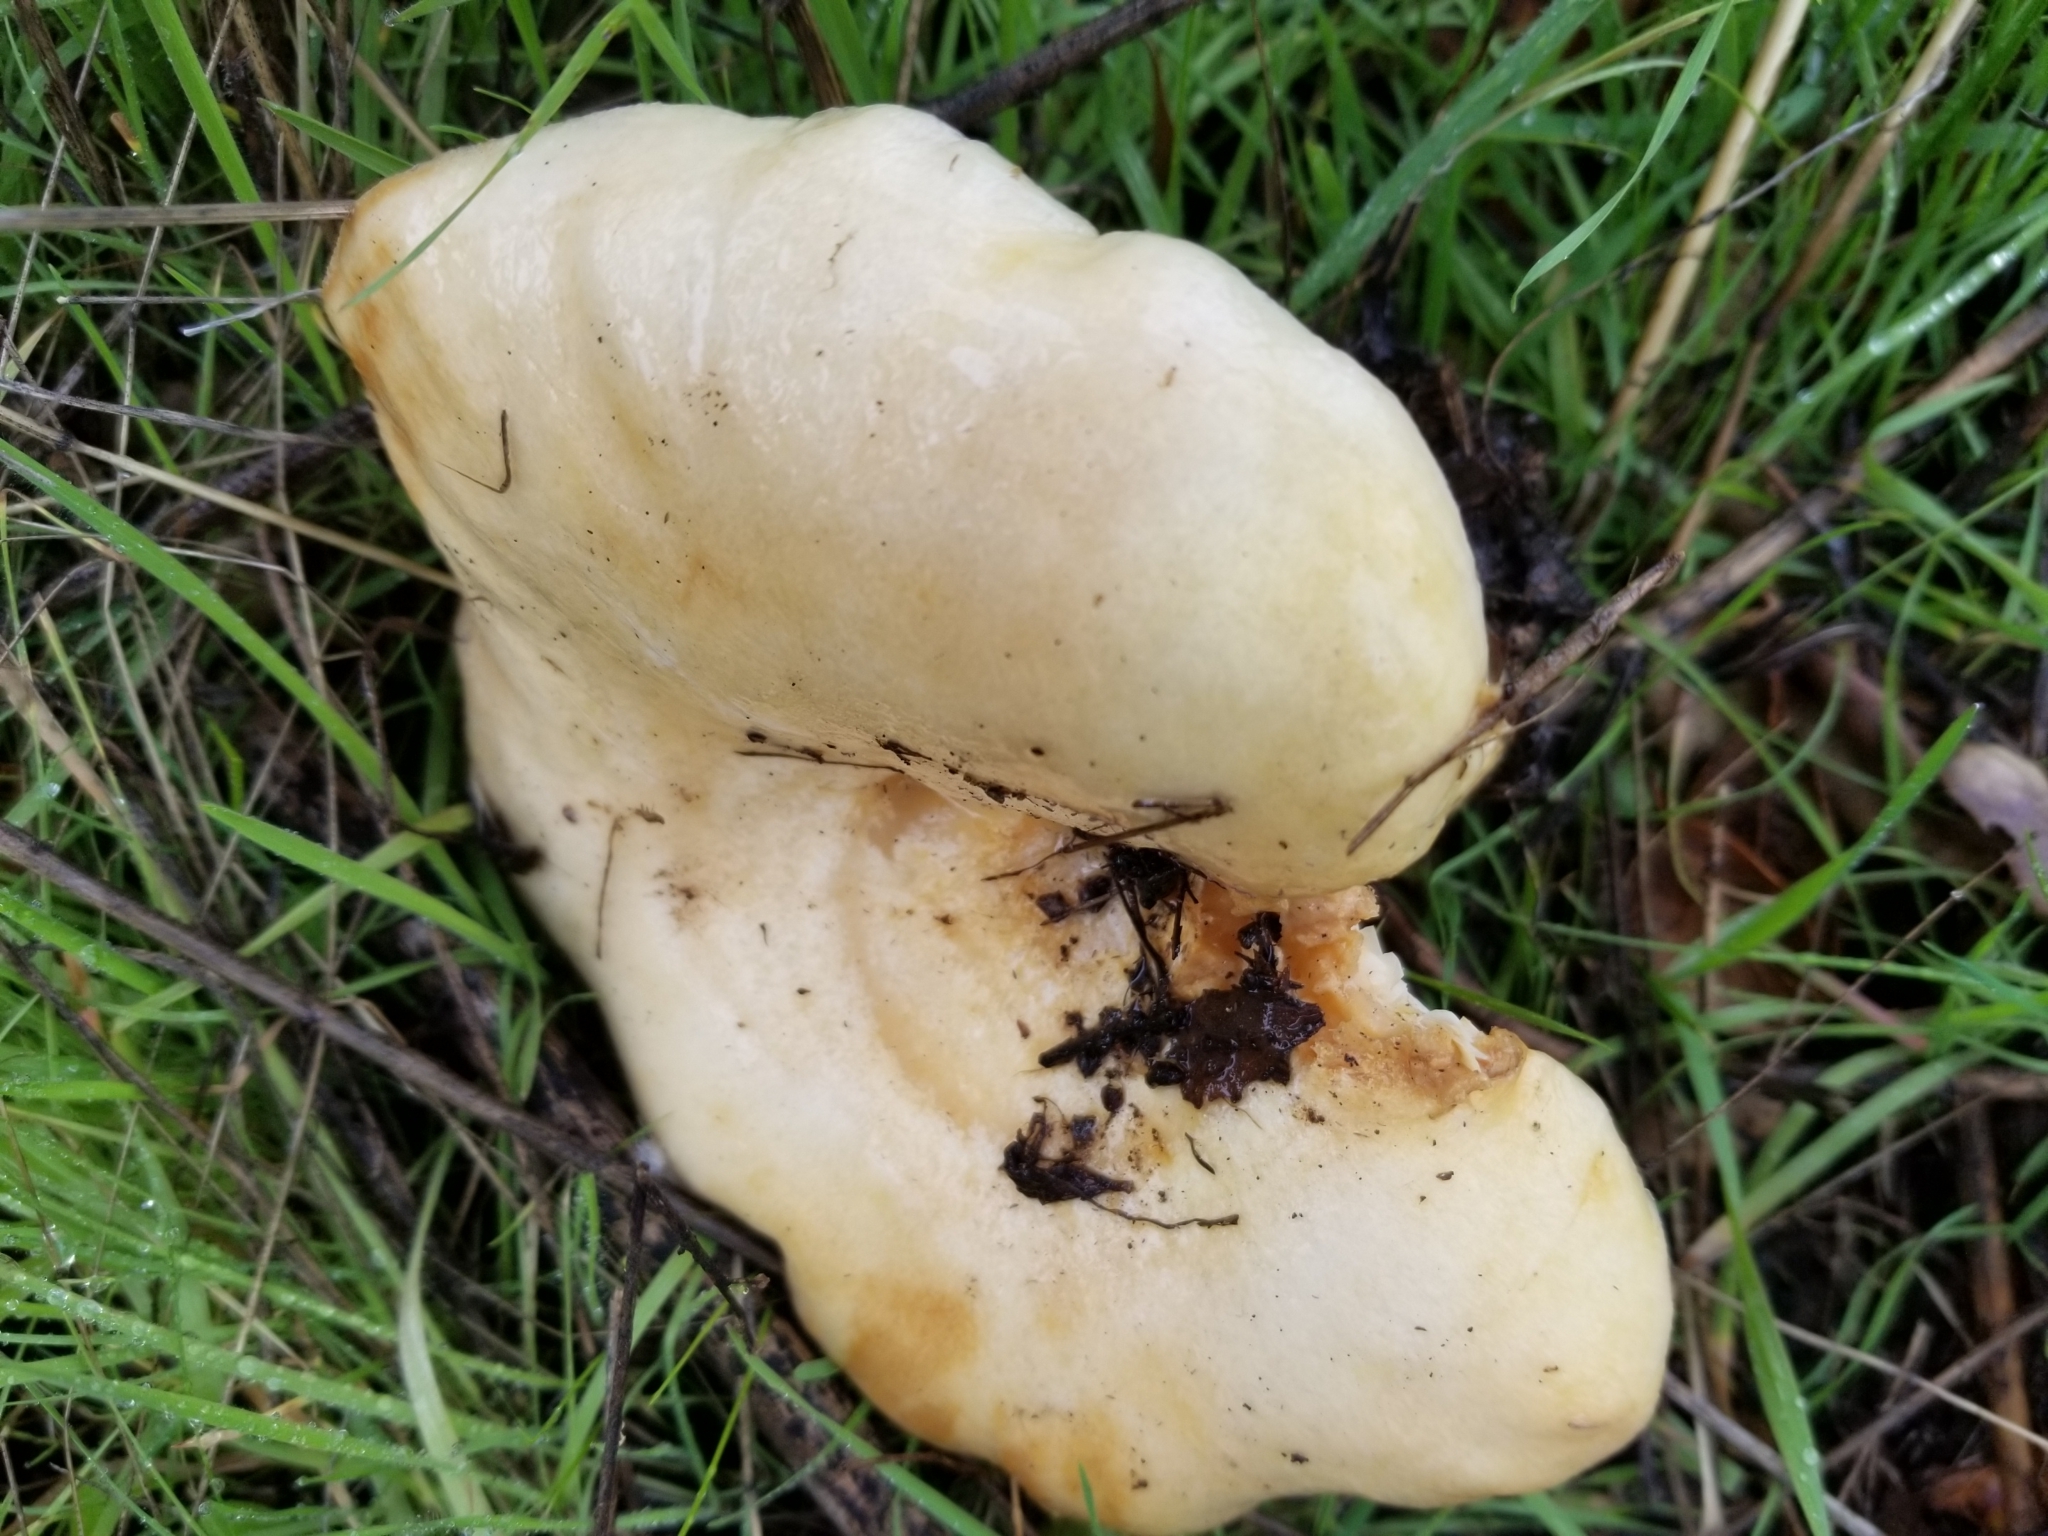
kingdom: Fungi
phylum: Basidiomycota
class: Agaricomycetes
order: Russulales
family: Russulaceae
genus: Lactarius
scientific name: Lactarius alnicola
